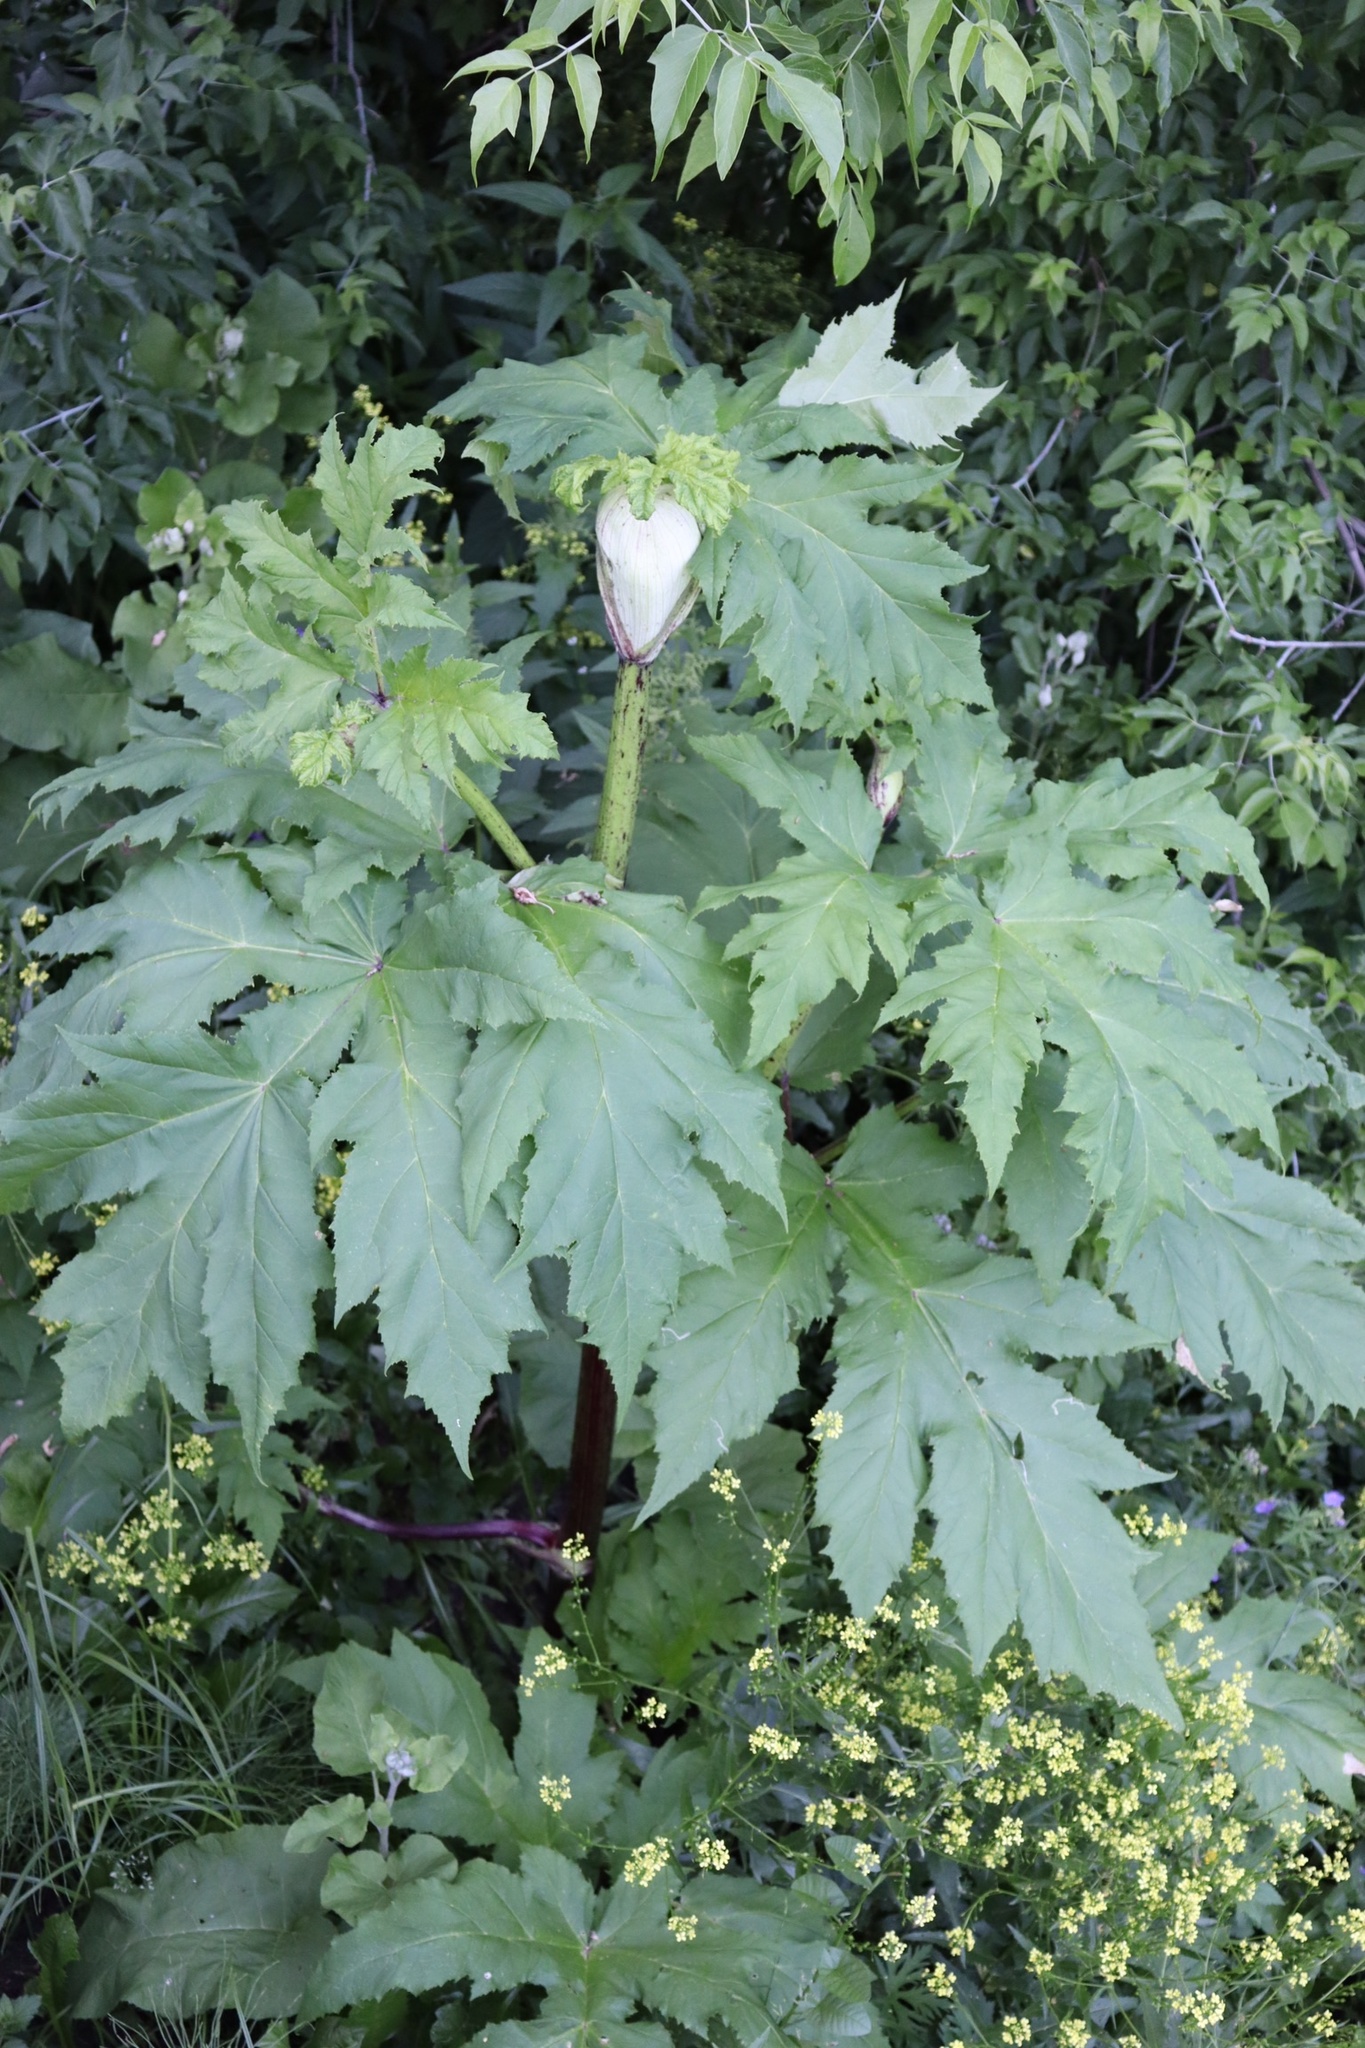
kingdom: Plantae
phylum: Tracheophyta
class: Magnoliopsida
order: Apiales
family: Apiaceae
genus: Heracleum
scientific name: Heracleum sosnowskyi
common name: Sosnowsky's hogweed
